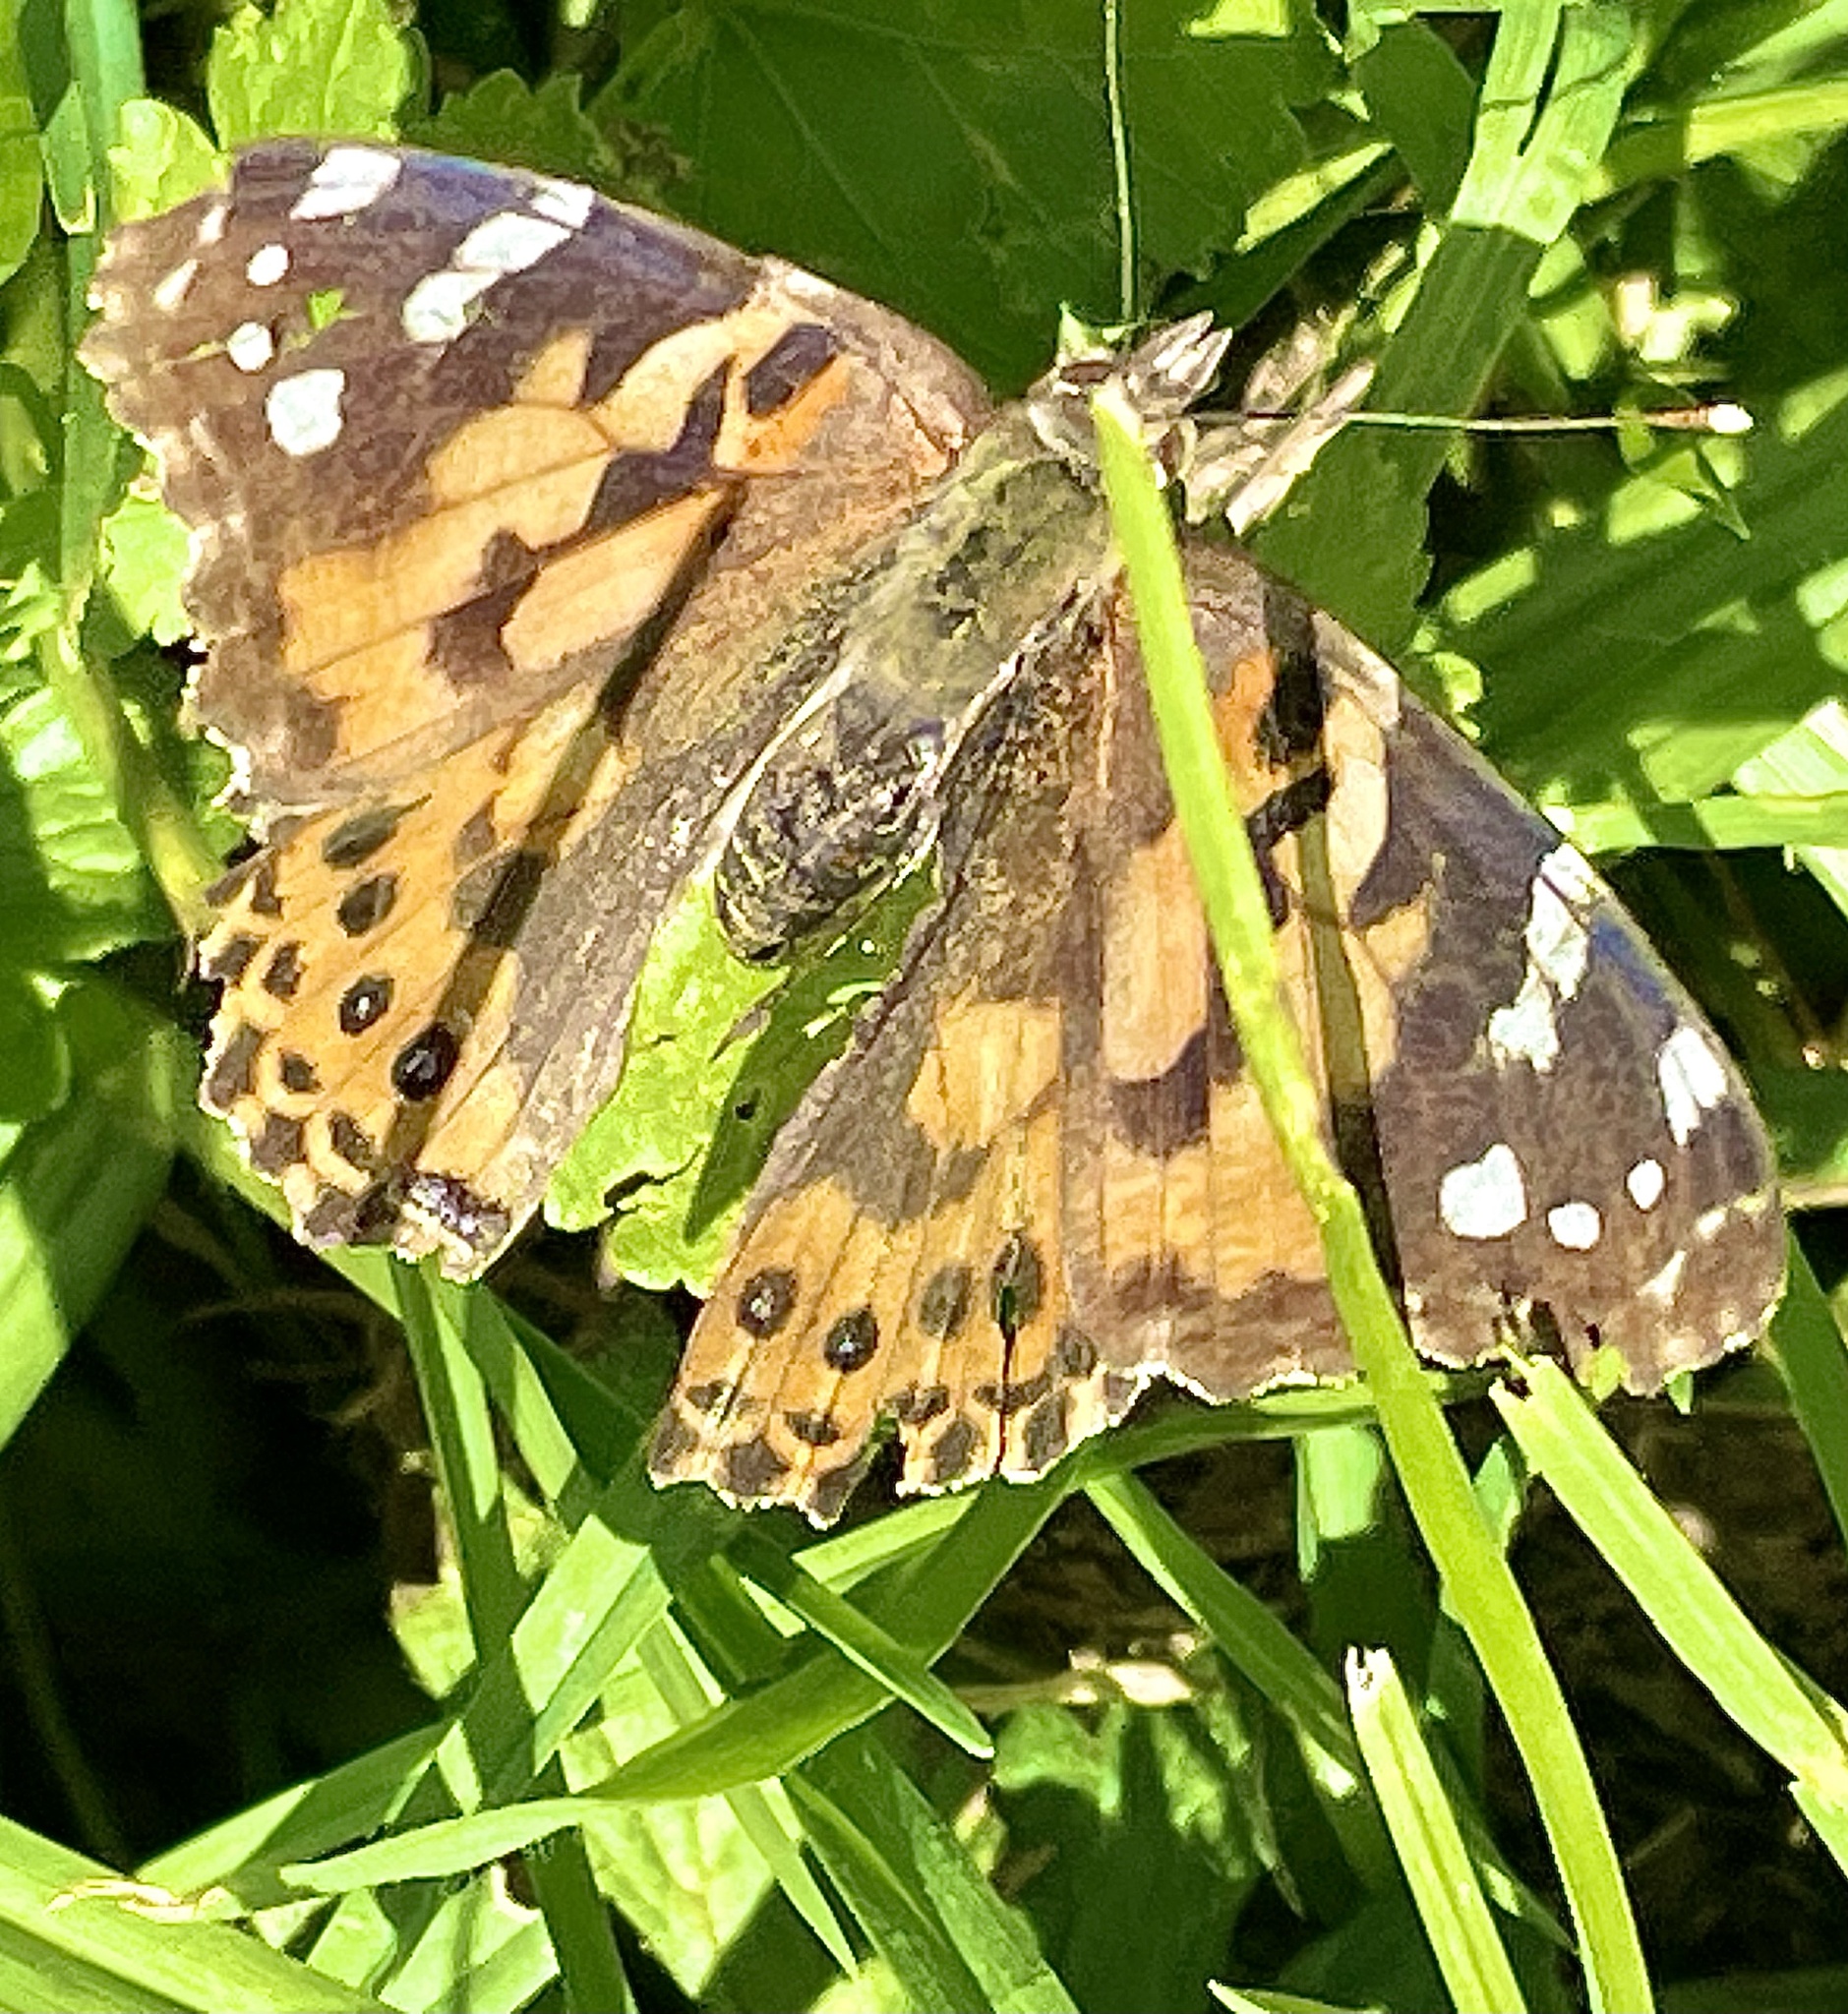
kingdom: Animalia
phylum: Arthropoda
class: Insecta
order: Lepidoptera
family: Nymphalidae
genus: Vanessa
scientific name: Vanessa cardui
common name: Painted lady
